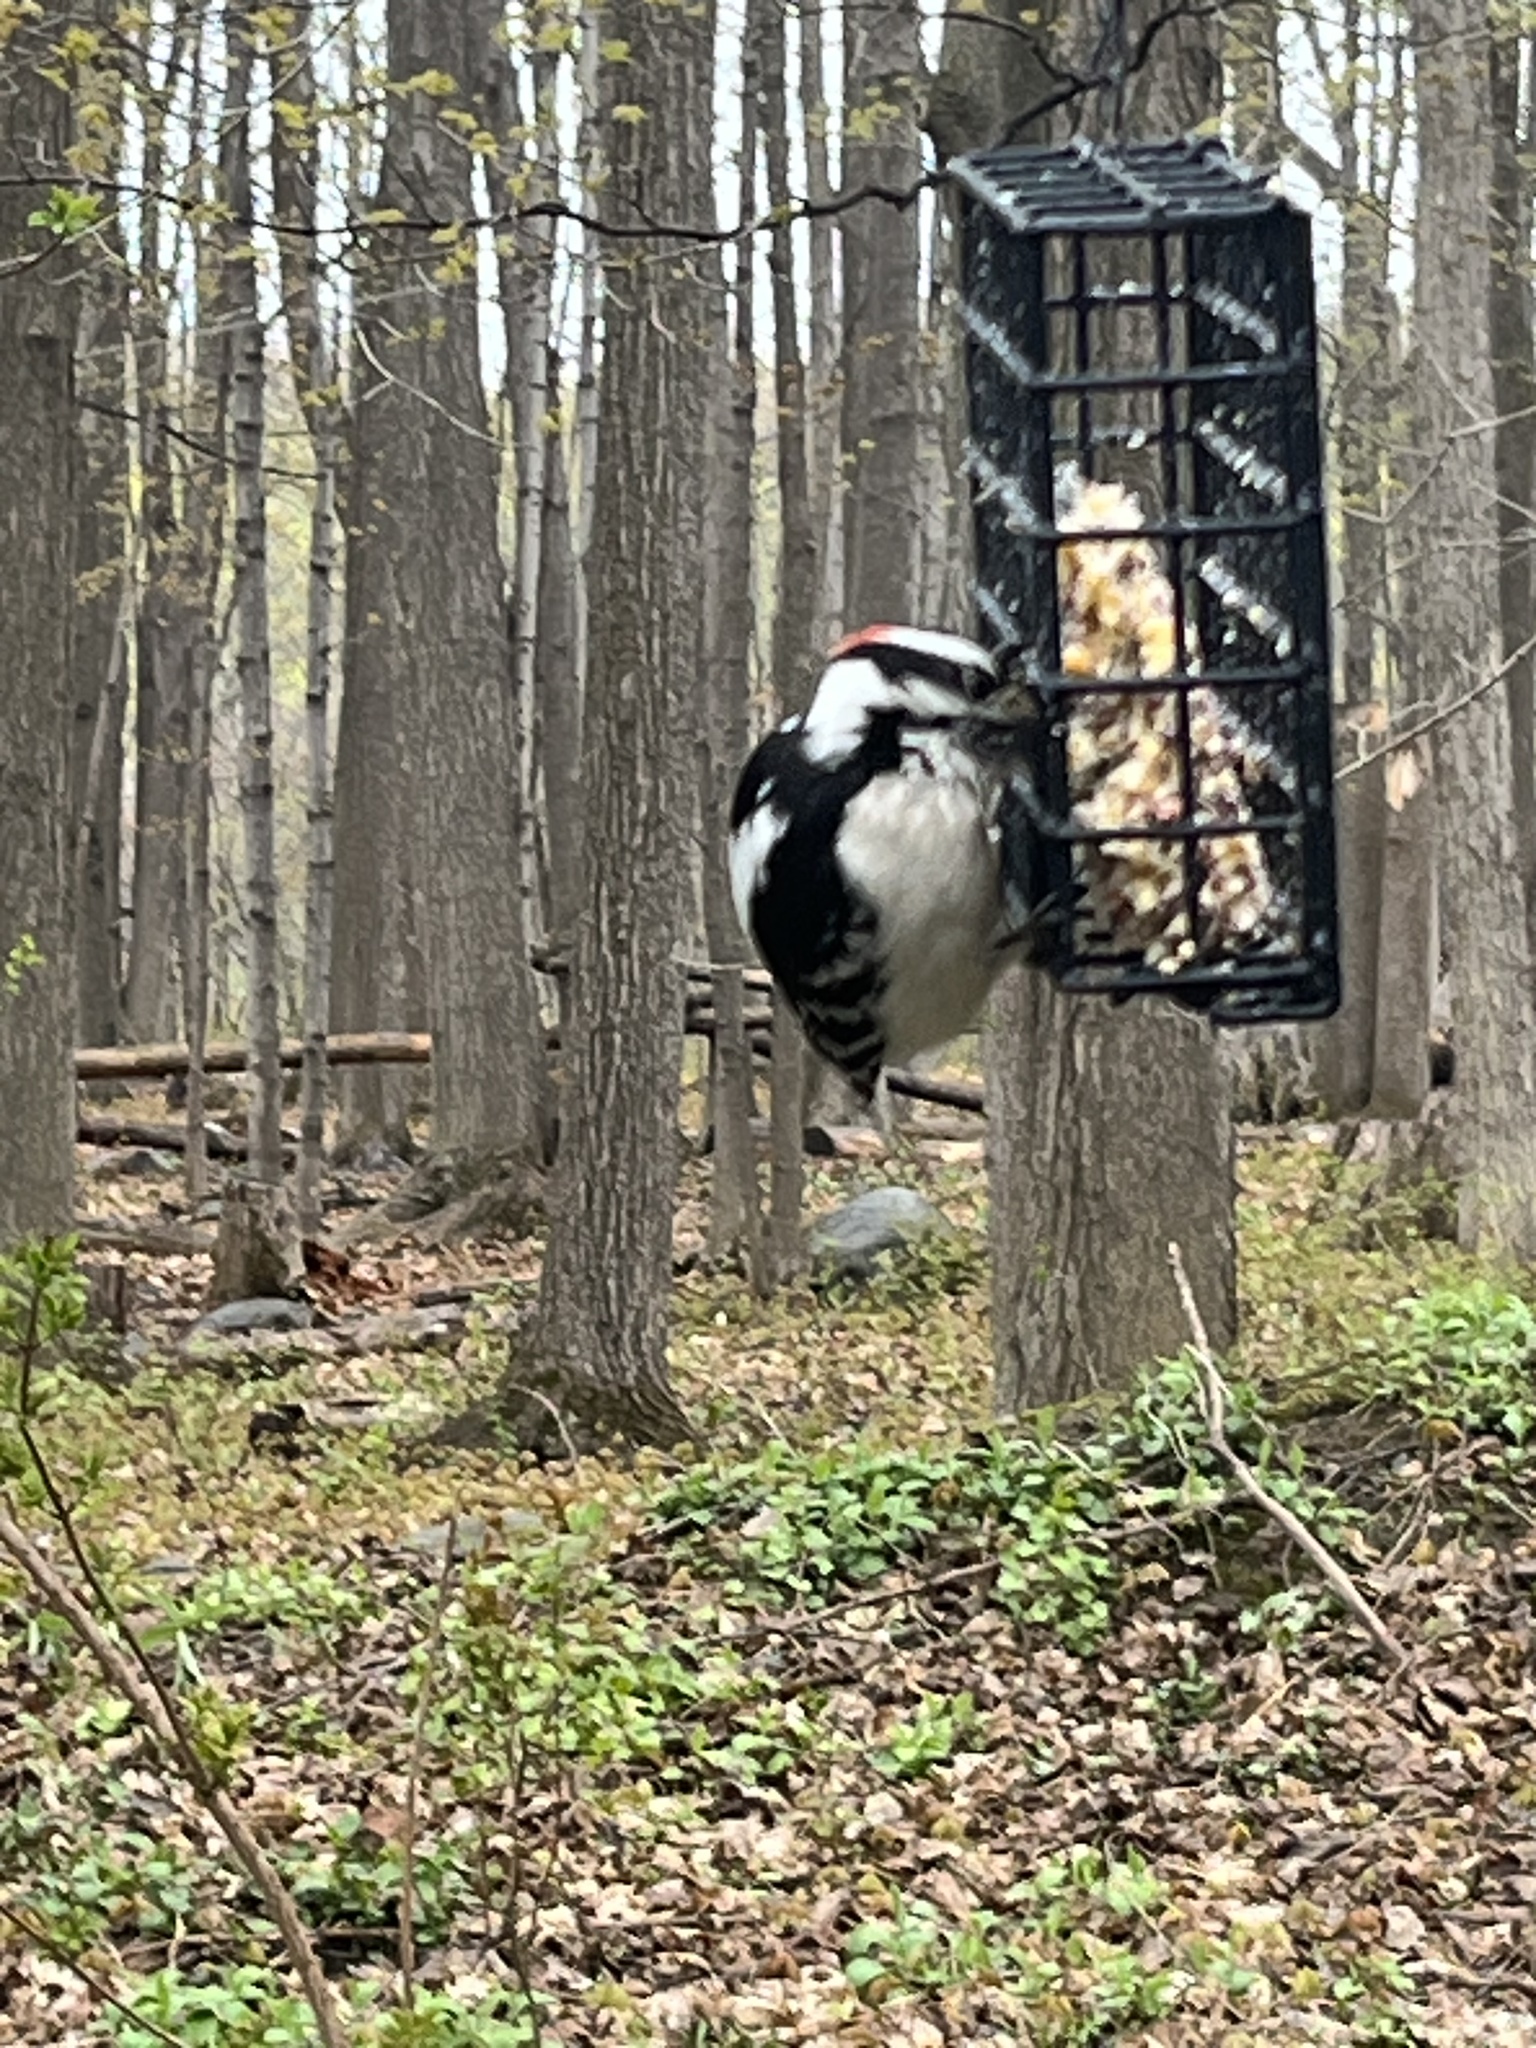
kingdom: Animalia
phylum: Chordata
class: Aves
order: Piciformes
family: Picidae
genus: Dryobates
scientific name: Dryobates pubescens
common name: Downy woodpecker
